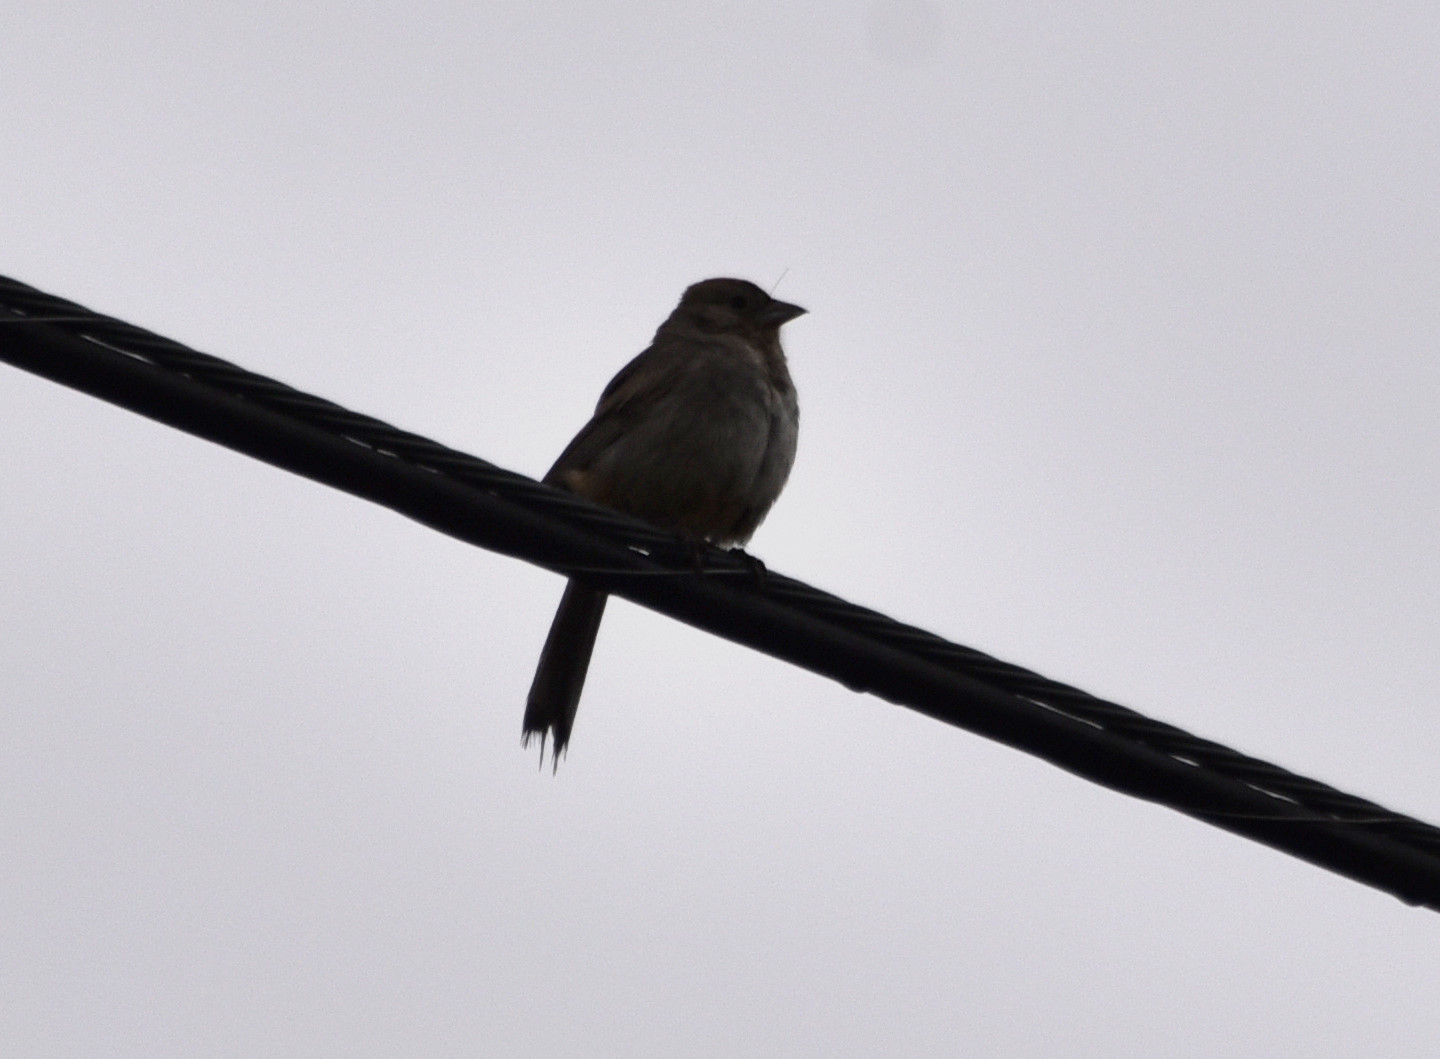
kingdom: Animalia
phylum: Chordata
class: Aves
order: Passeriformes
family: Passerellidae
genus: Melozone
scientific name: Melozone fusca
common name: Canyon towhee
